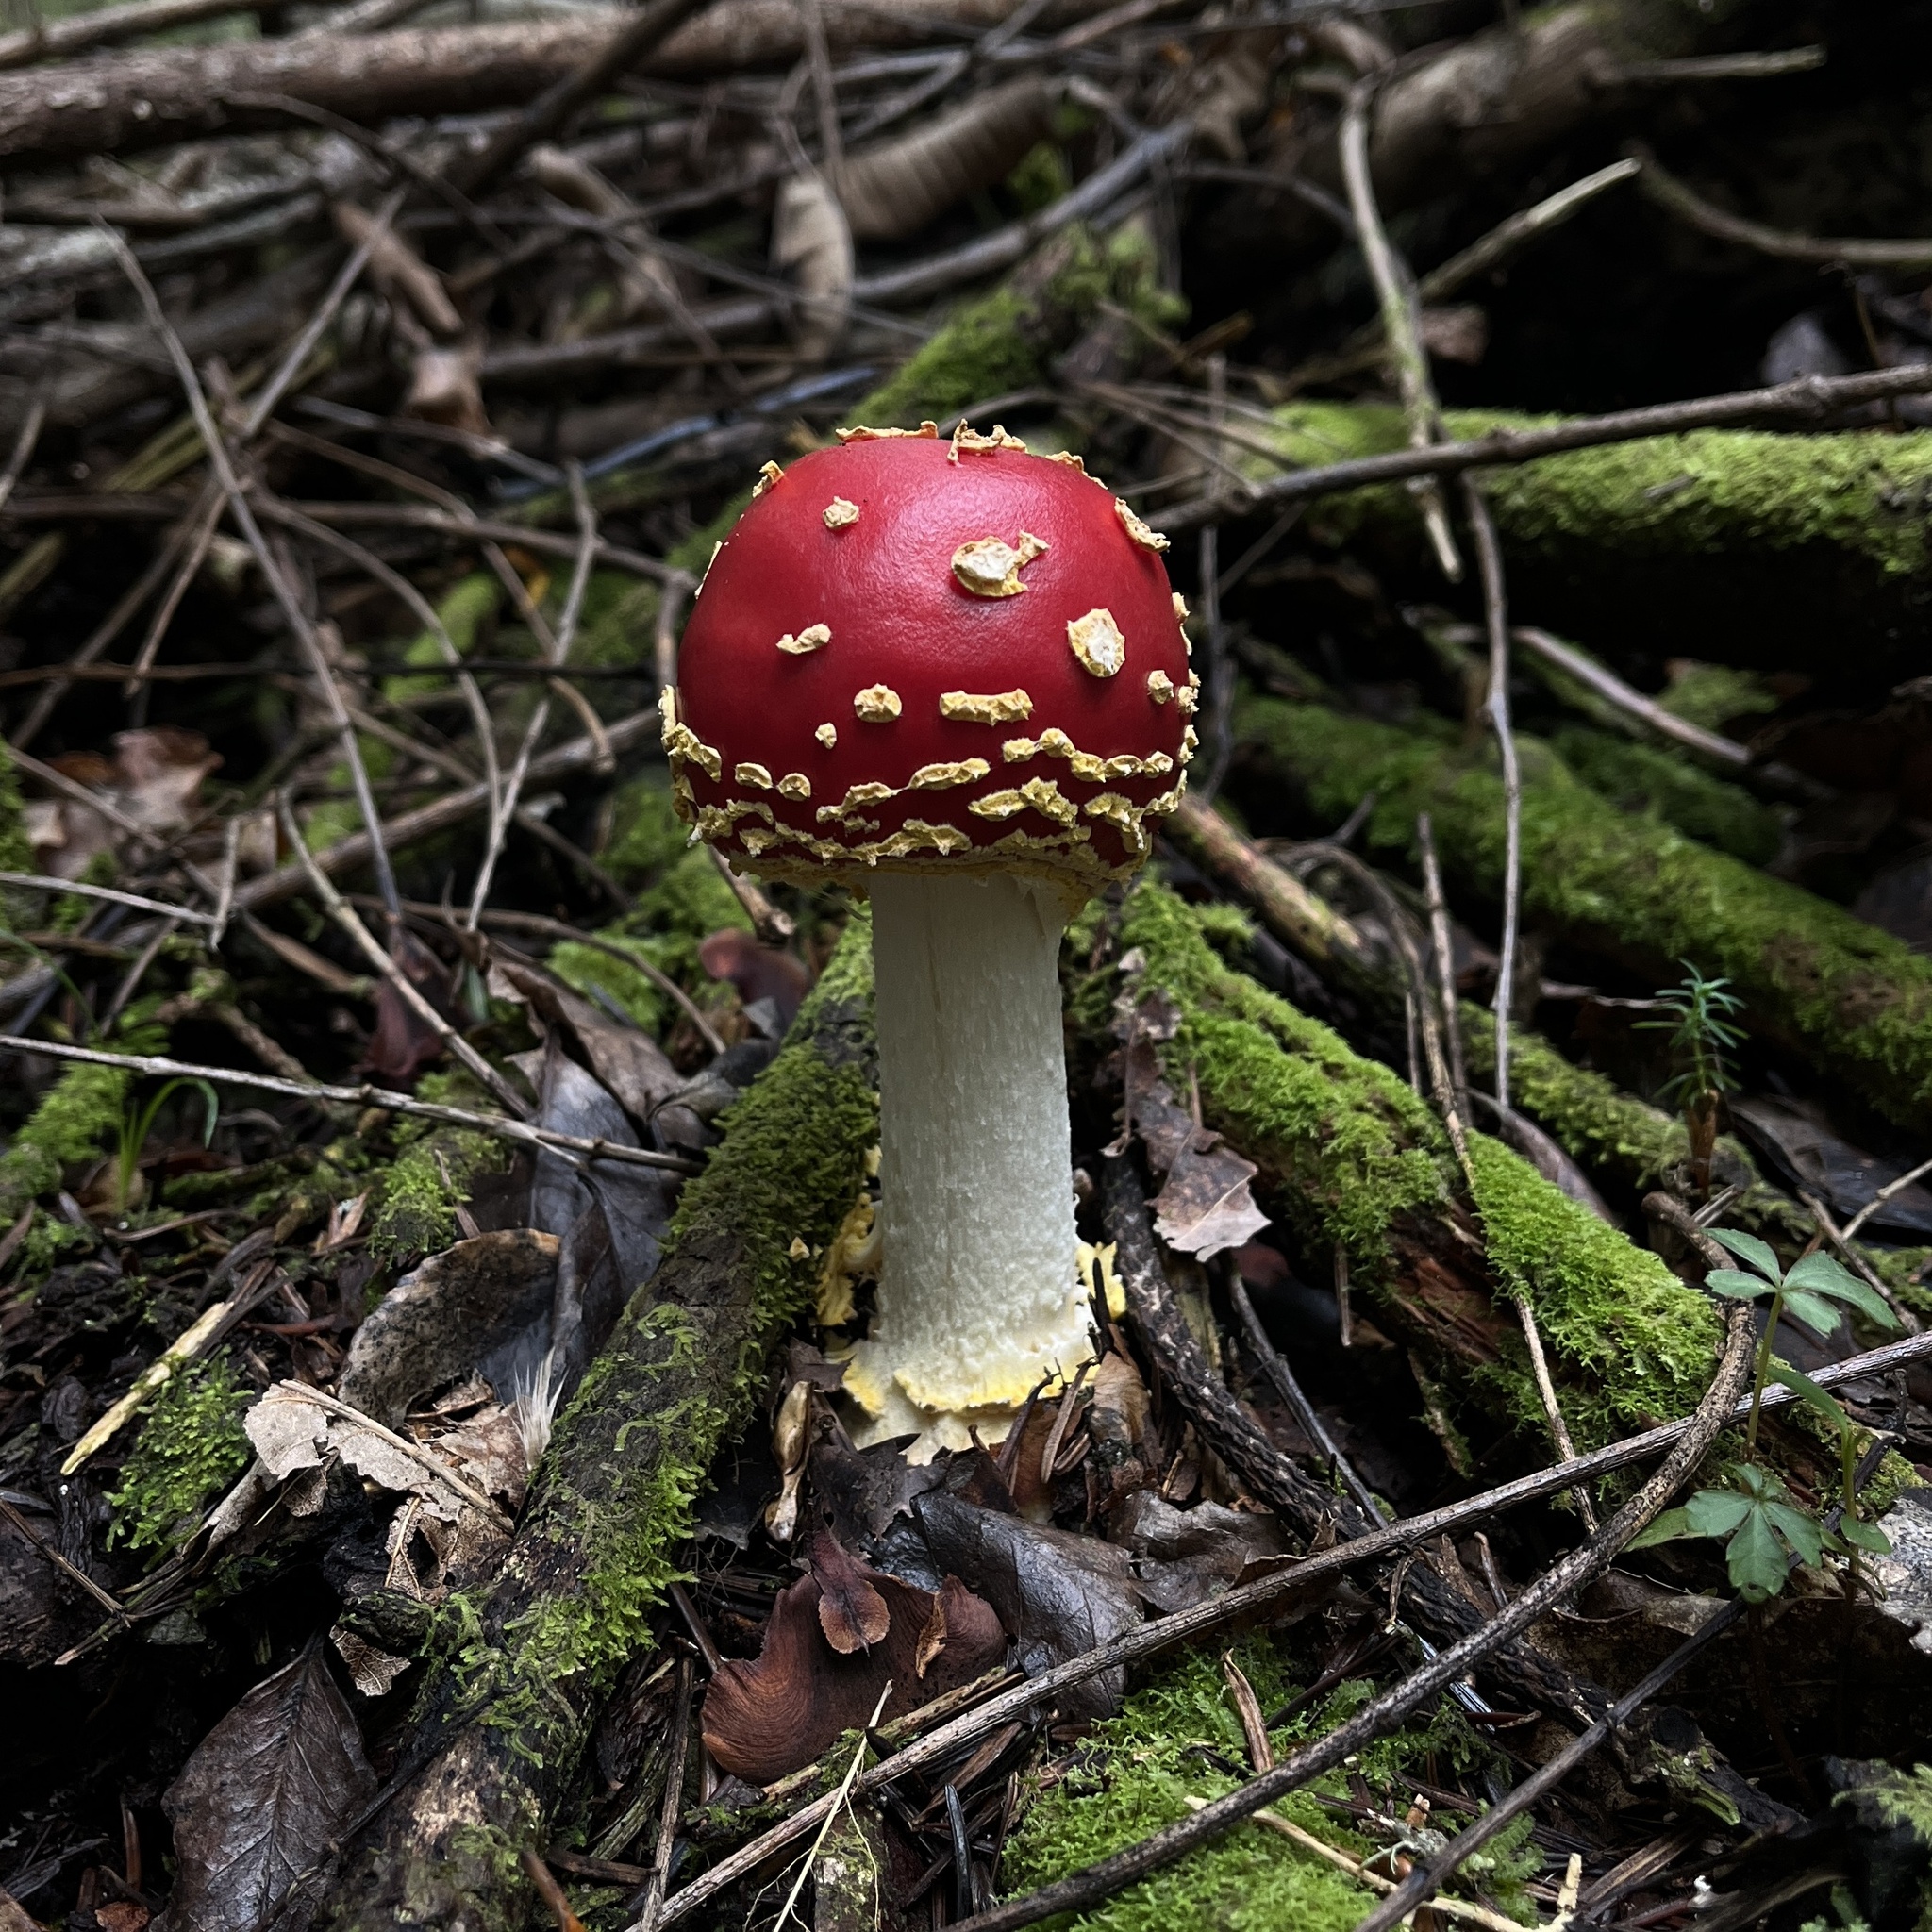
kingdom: Fungi
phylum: Basidiomycota
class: Agaricomycetes
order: Agaricales
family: Amanitaceae
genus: Amanita
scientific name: Amanita muscaria
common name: Fly agaric
